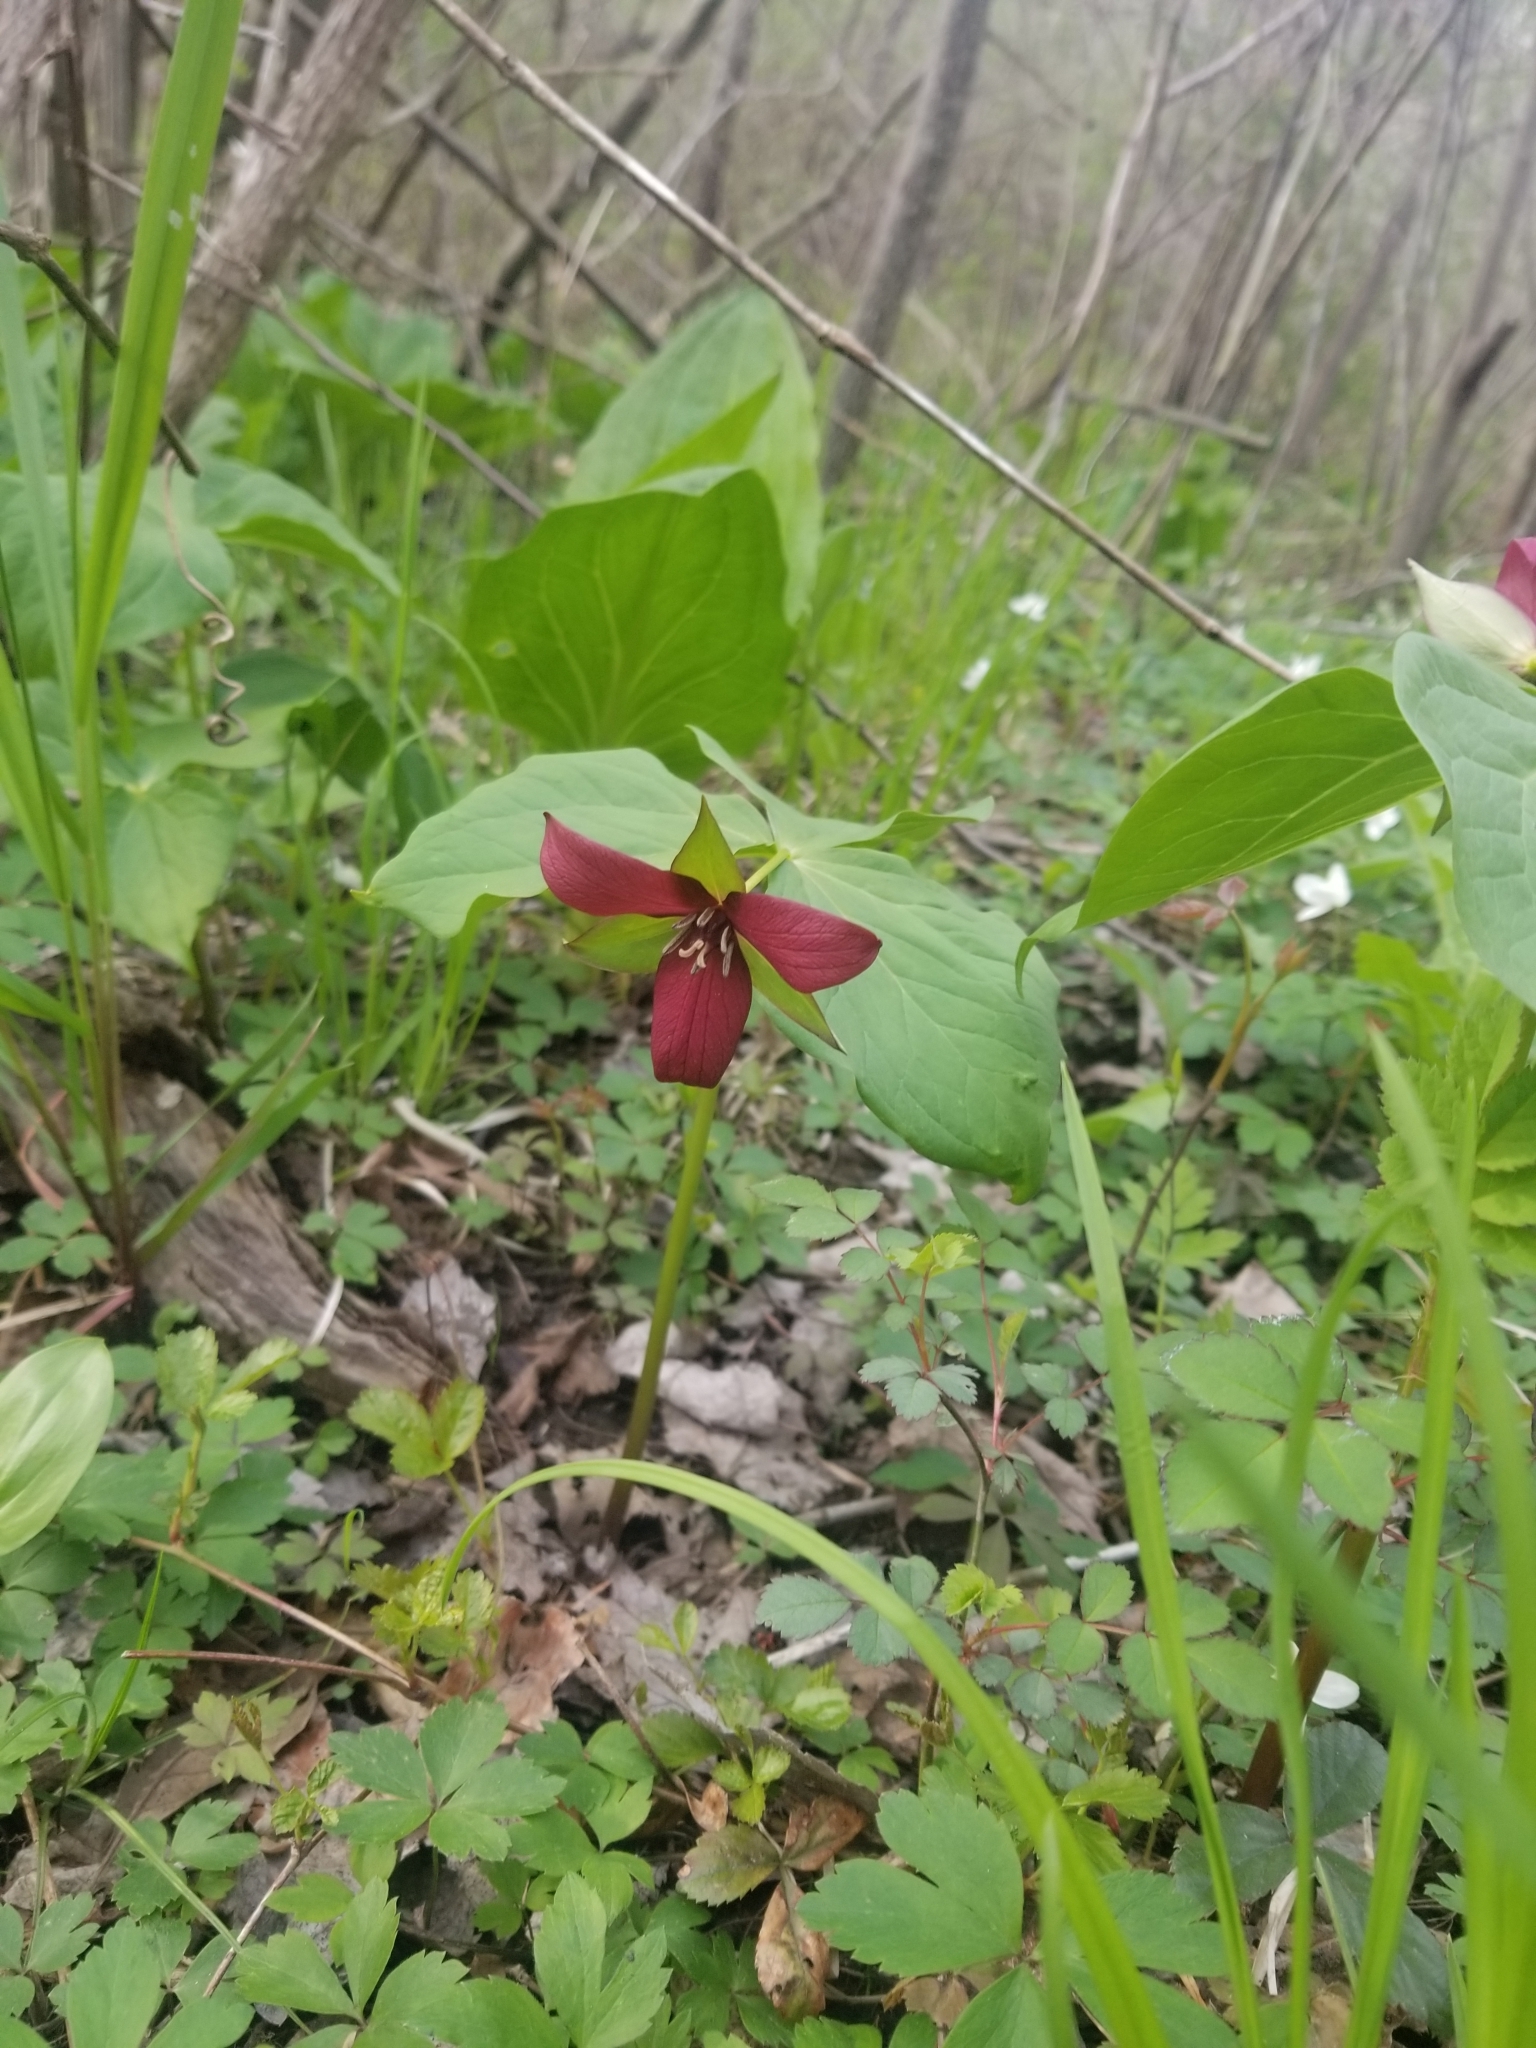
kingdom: Plantae
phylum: Tracheophyta
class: Liliopsida
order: Liliales
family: Melanthiaceae
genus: Trillium
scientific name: Trillium erectum
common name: Purple trillium
